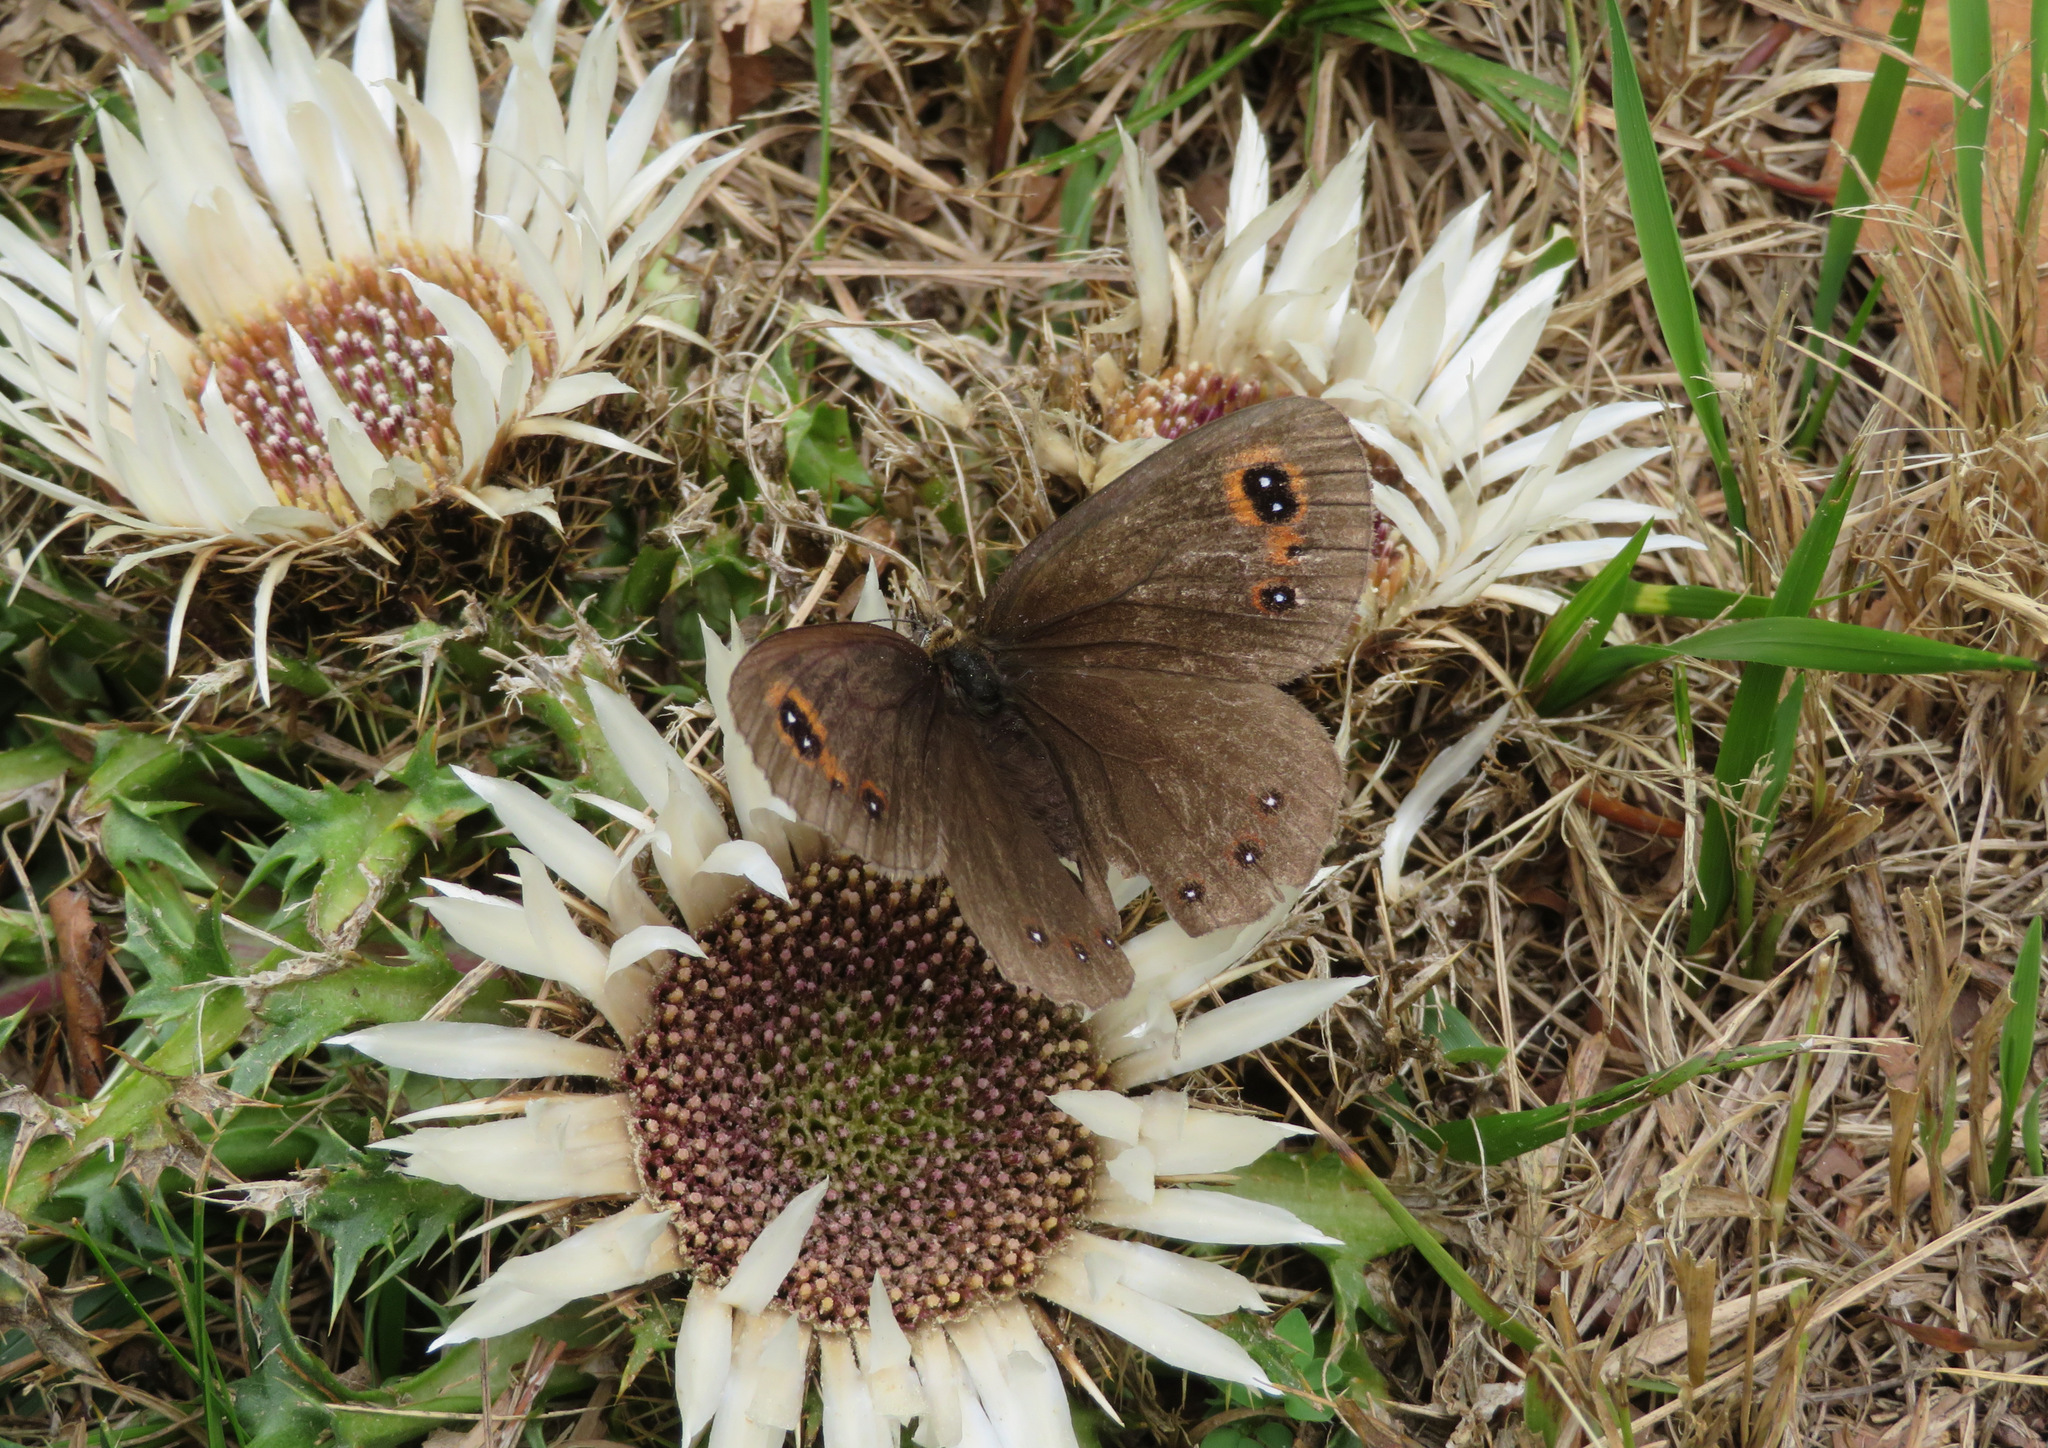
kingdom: Animalia
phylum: Arthropoda
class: Insecta
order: Lepidoptera
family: Nymphalidae
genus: Erebia
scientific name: Erebia aethiops
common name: Scotch argus
